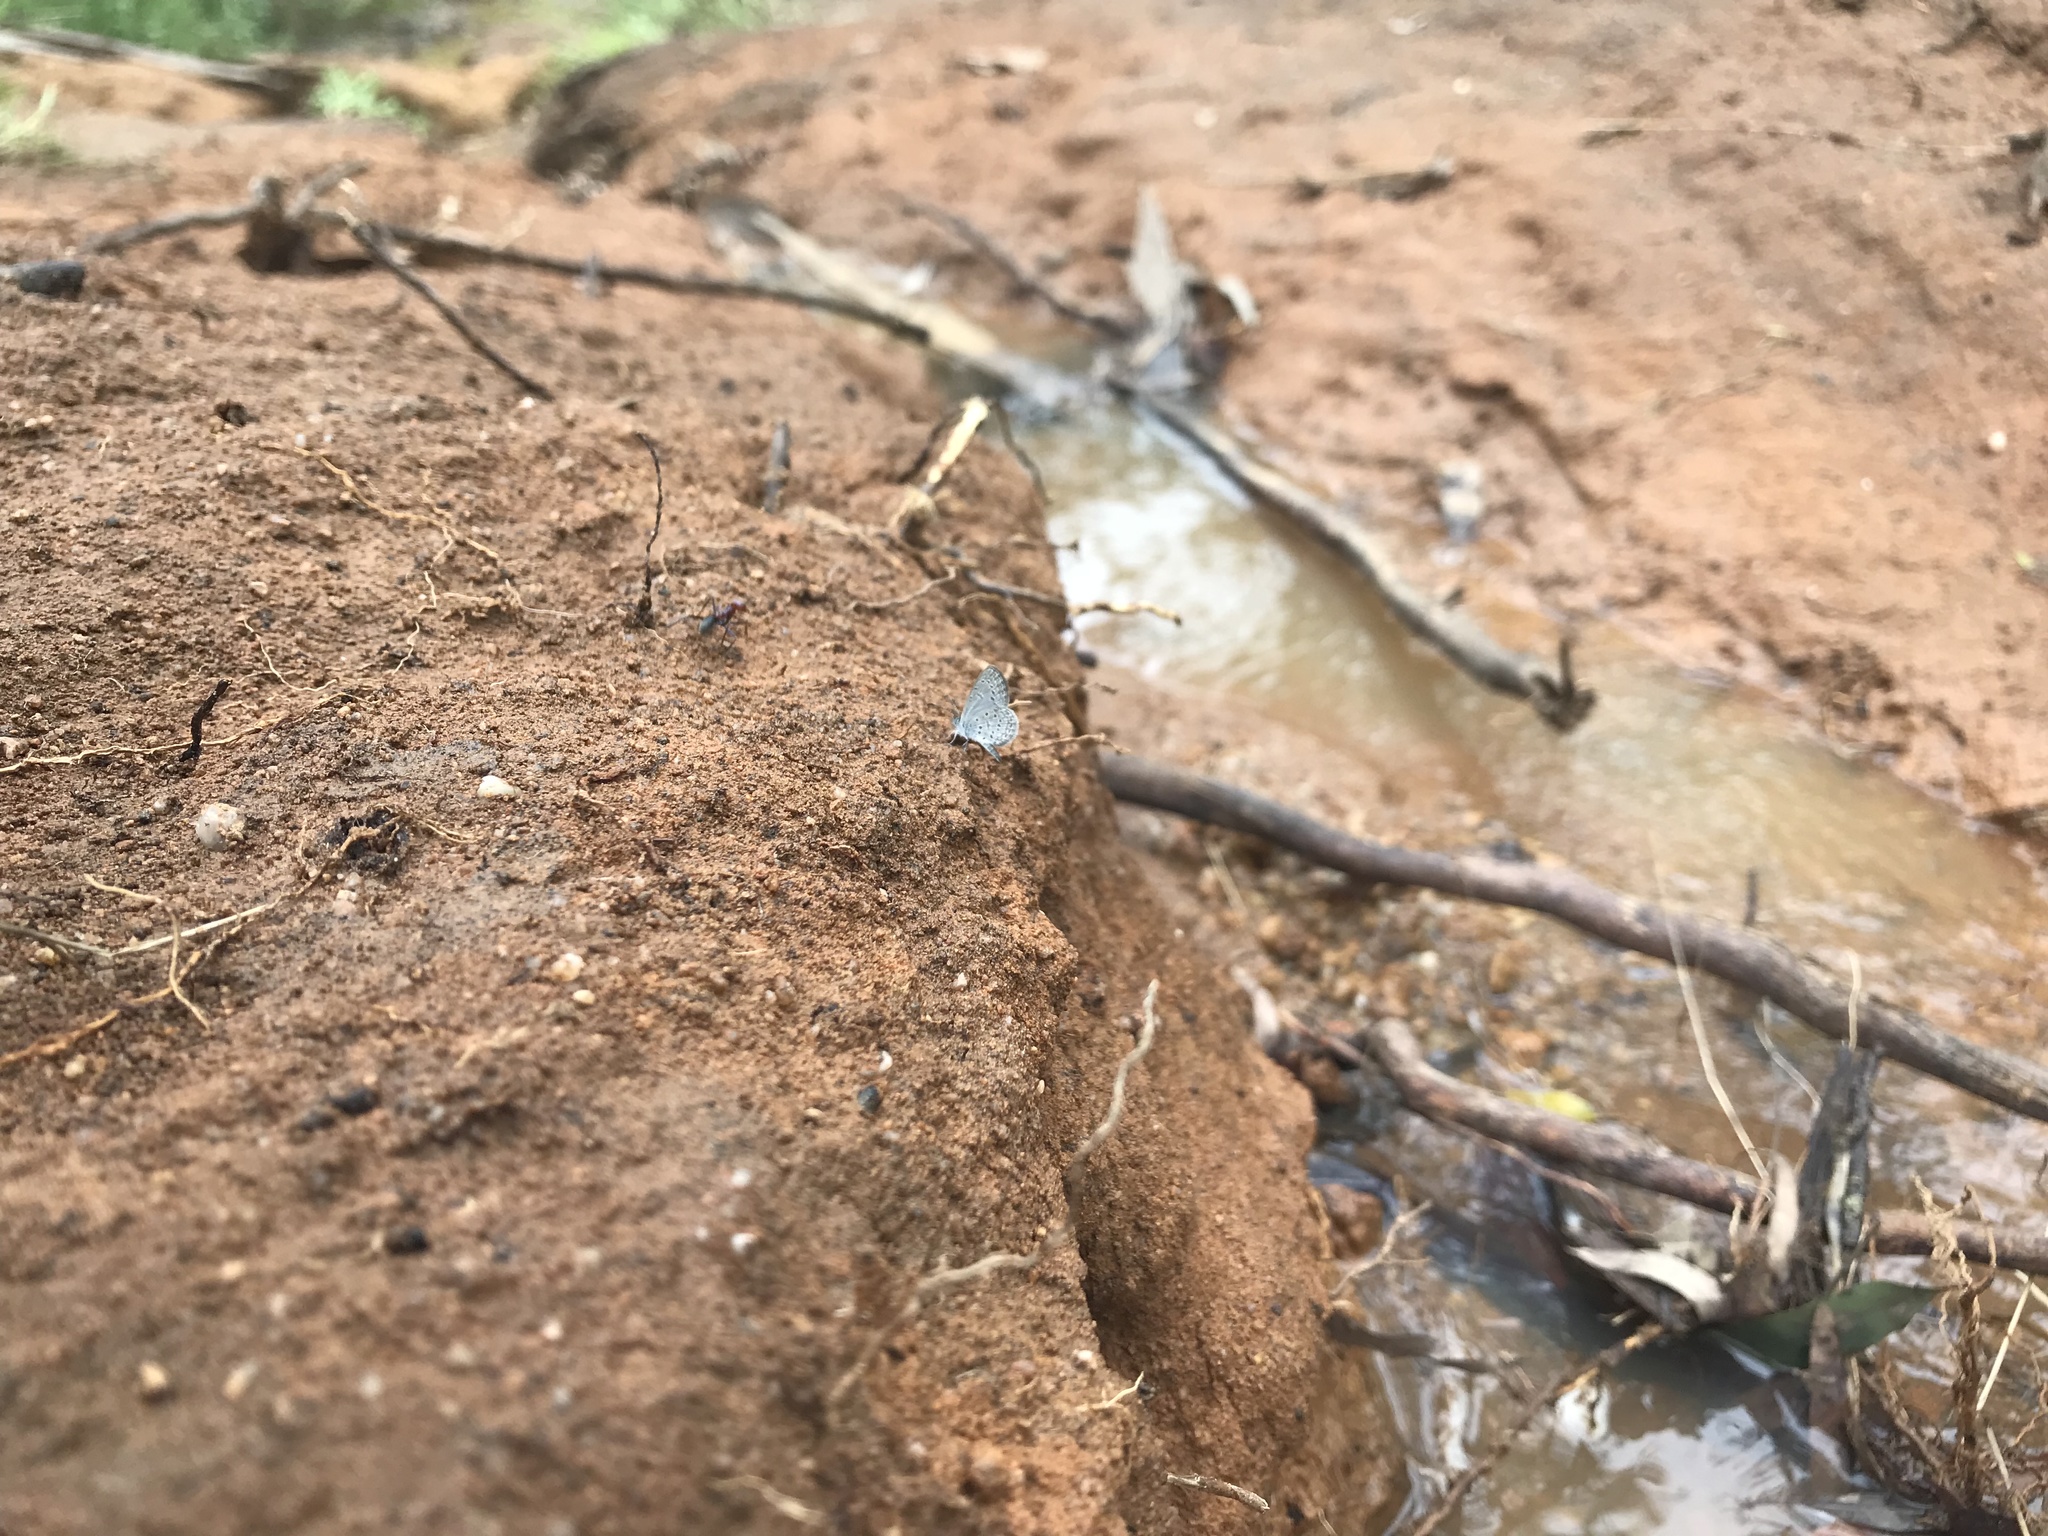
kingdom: Animalia
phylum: Arthropoda
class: Insecta
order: Lepidoptera
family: Lycaenidae
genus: Zizula
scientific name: Zizula hylax
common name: Gaika blue
